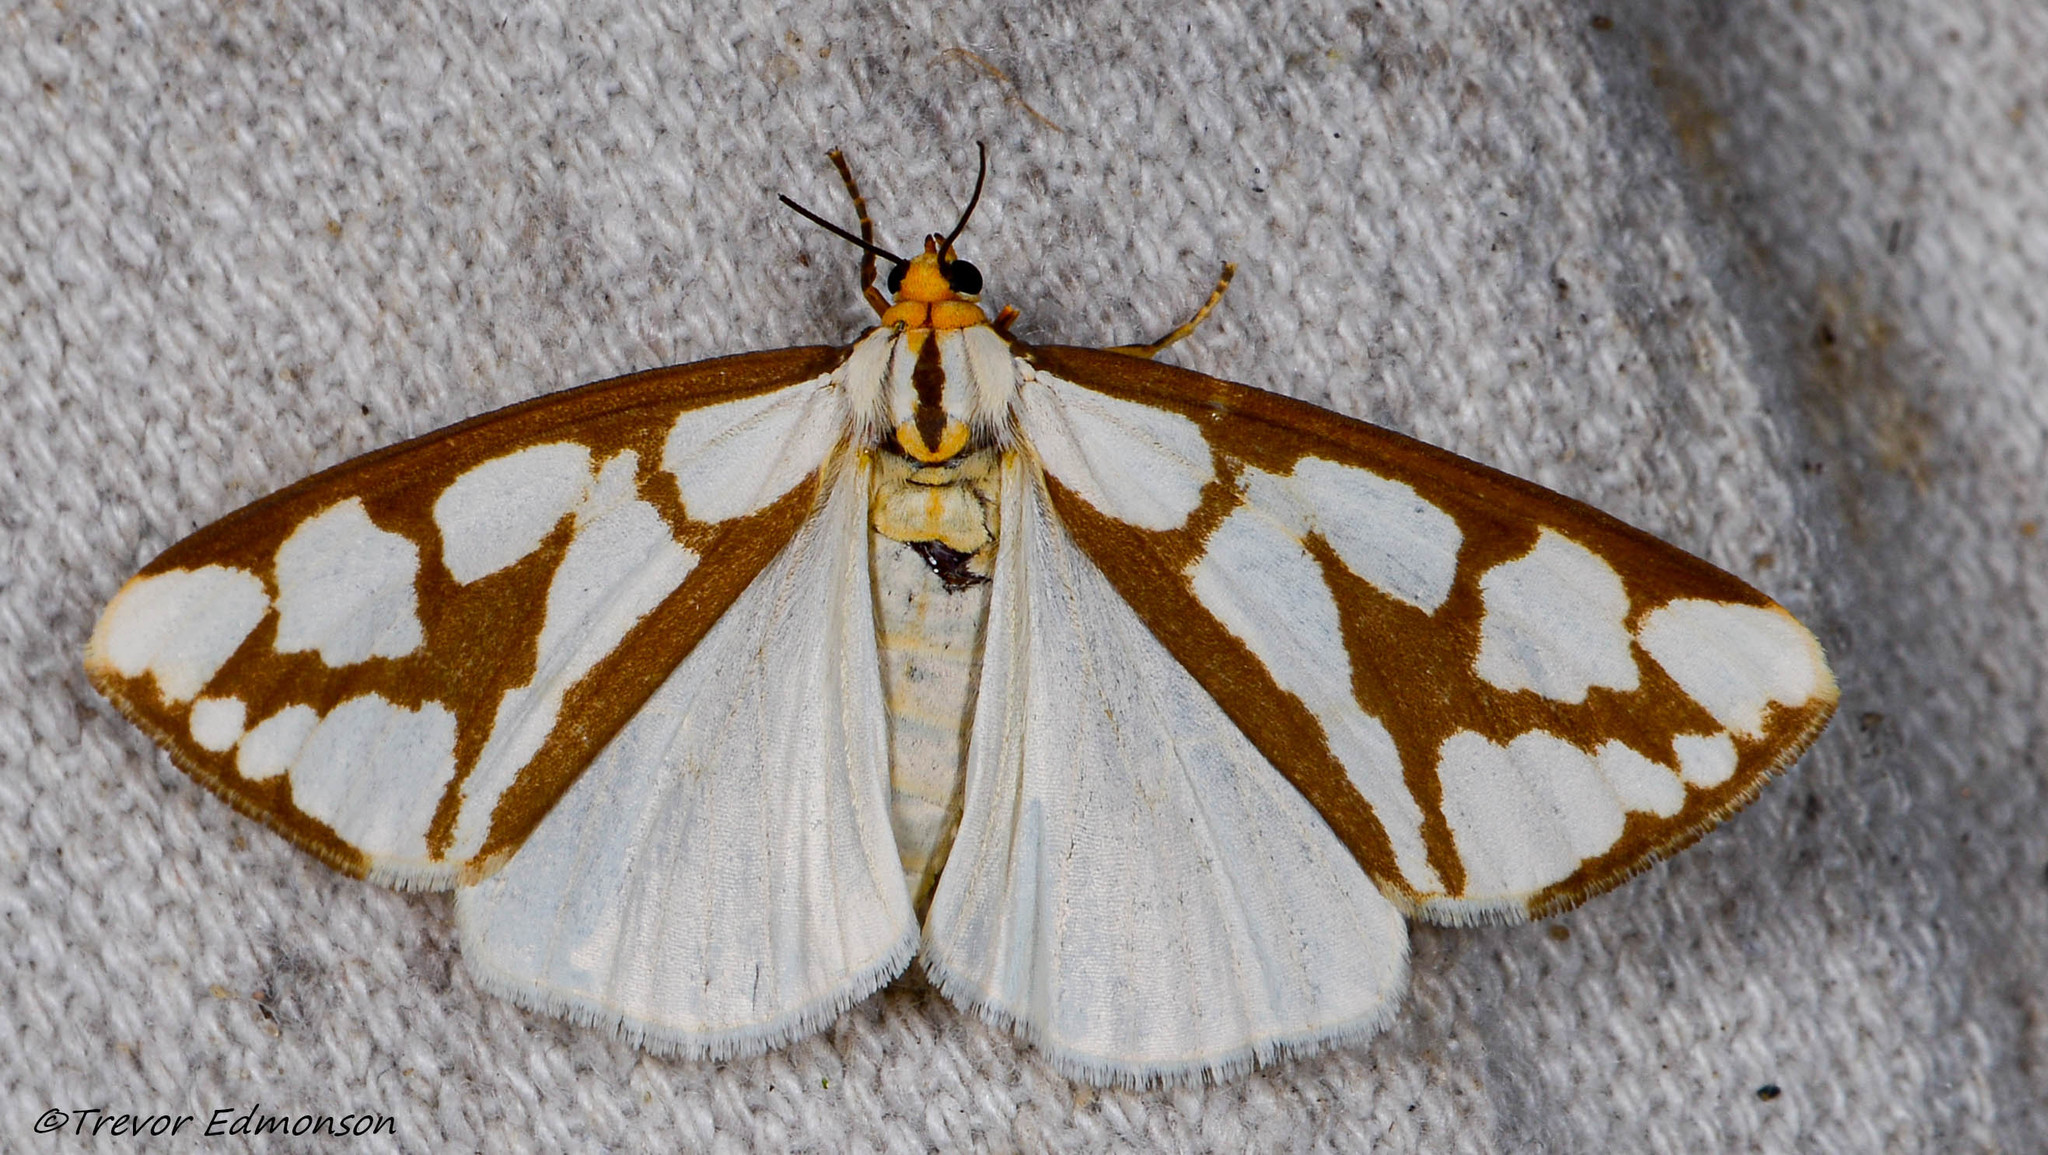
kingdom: Animalia
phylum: Arthropoda
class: Insecta
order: Lepidoptera
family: Erebidae
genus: Haploa
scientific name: Haploa confusa
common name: Confused haploa moth
